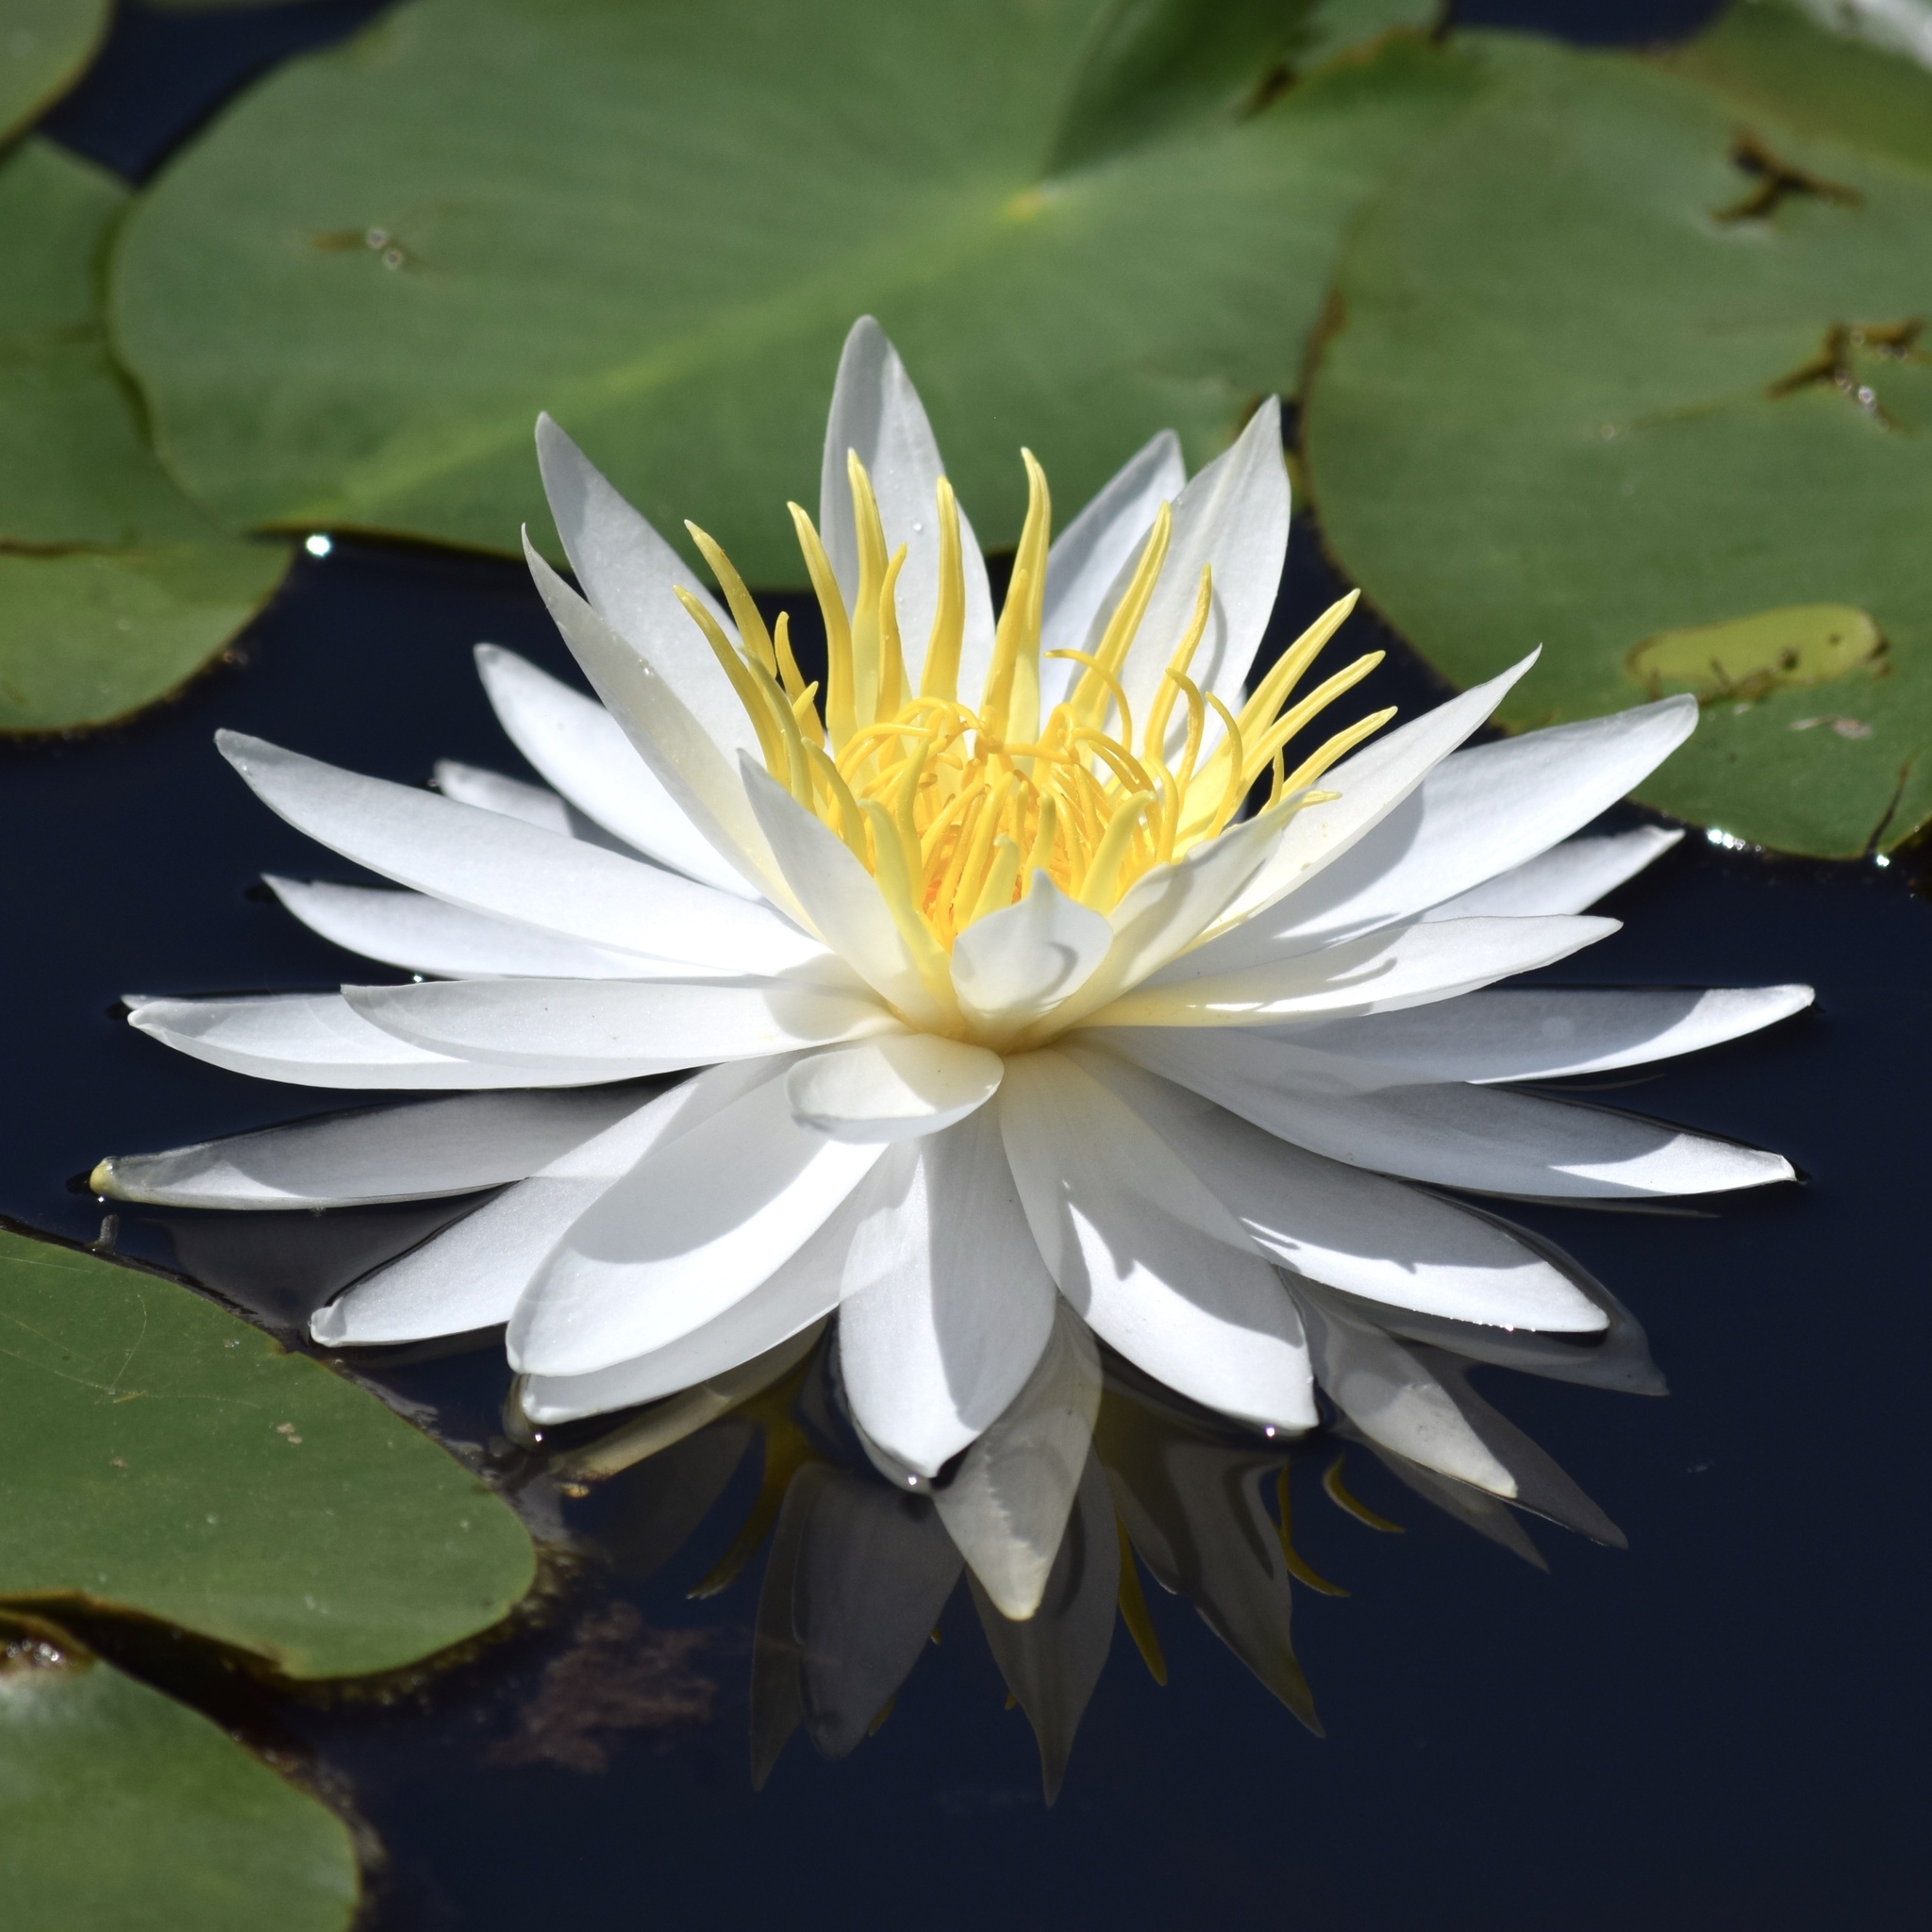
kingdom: Plantae
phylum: Tracheophyta
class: Magnoliopsida
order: Nymphaeales
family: Nymphaeaceae
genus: Nymphaea
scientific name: Nymphaea odorata
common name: Fragrant water-lily
